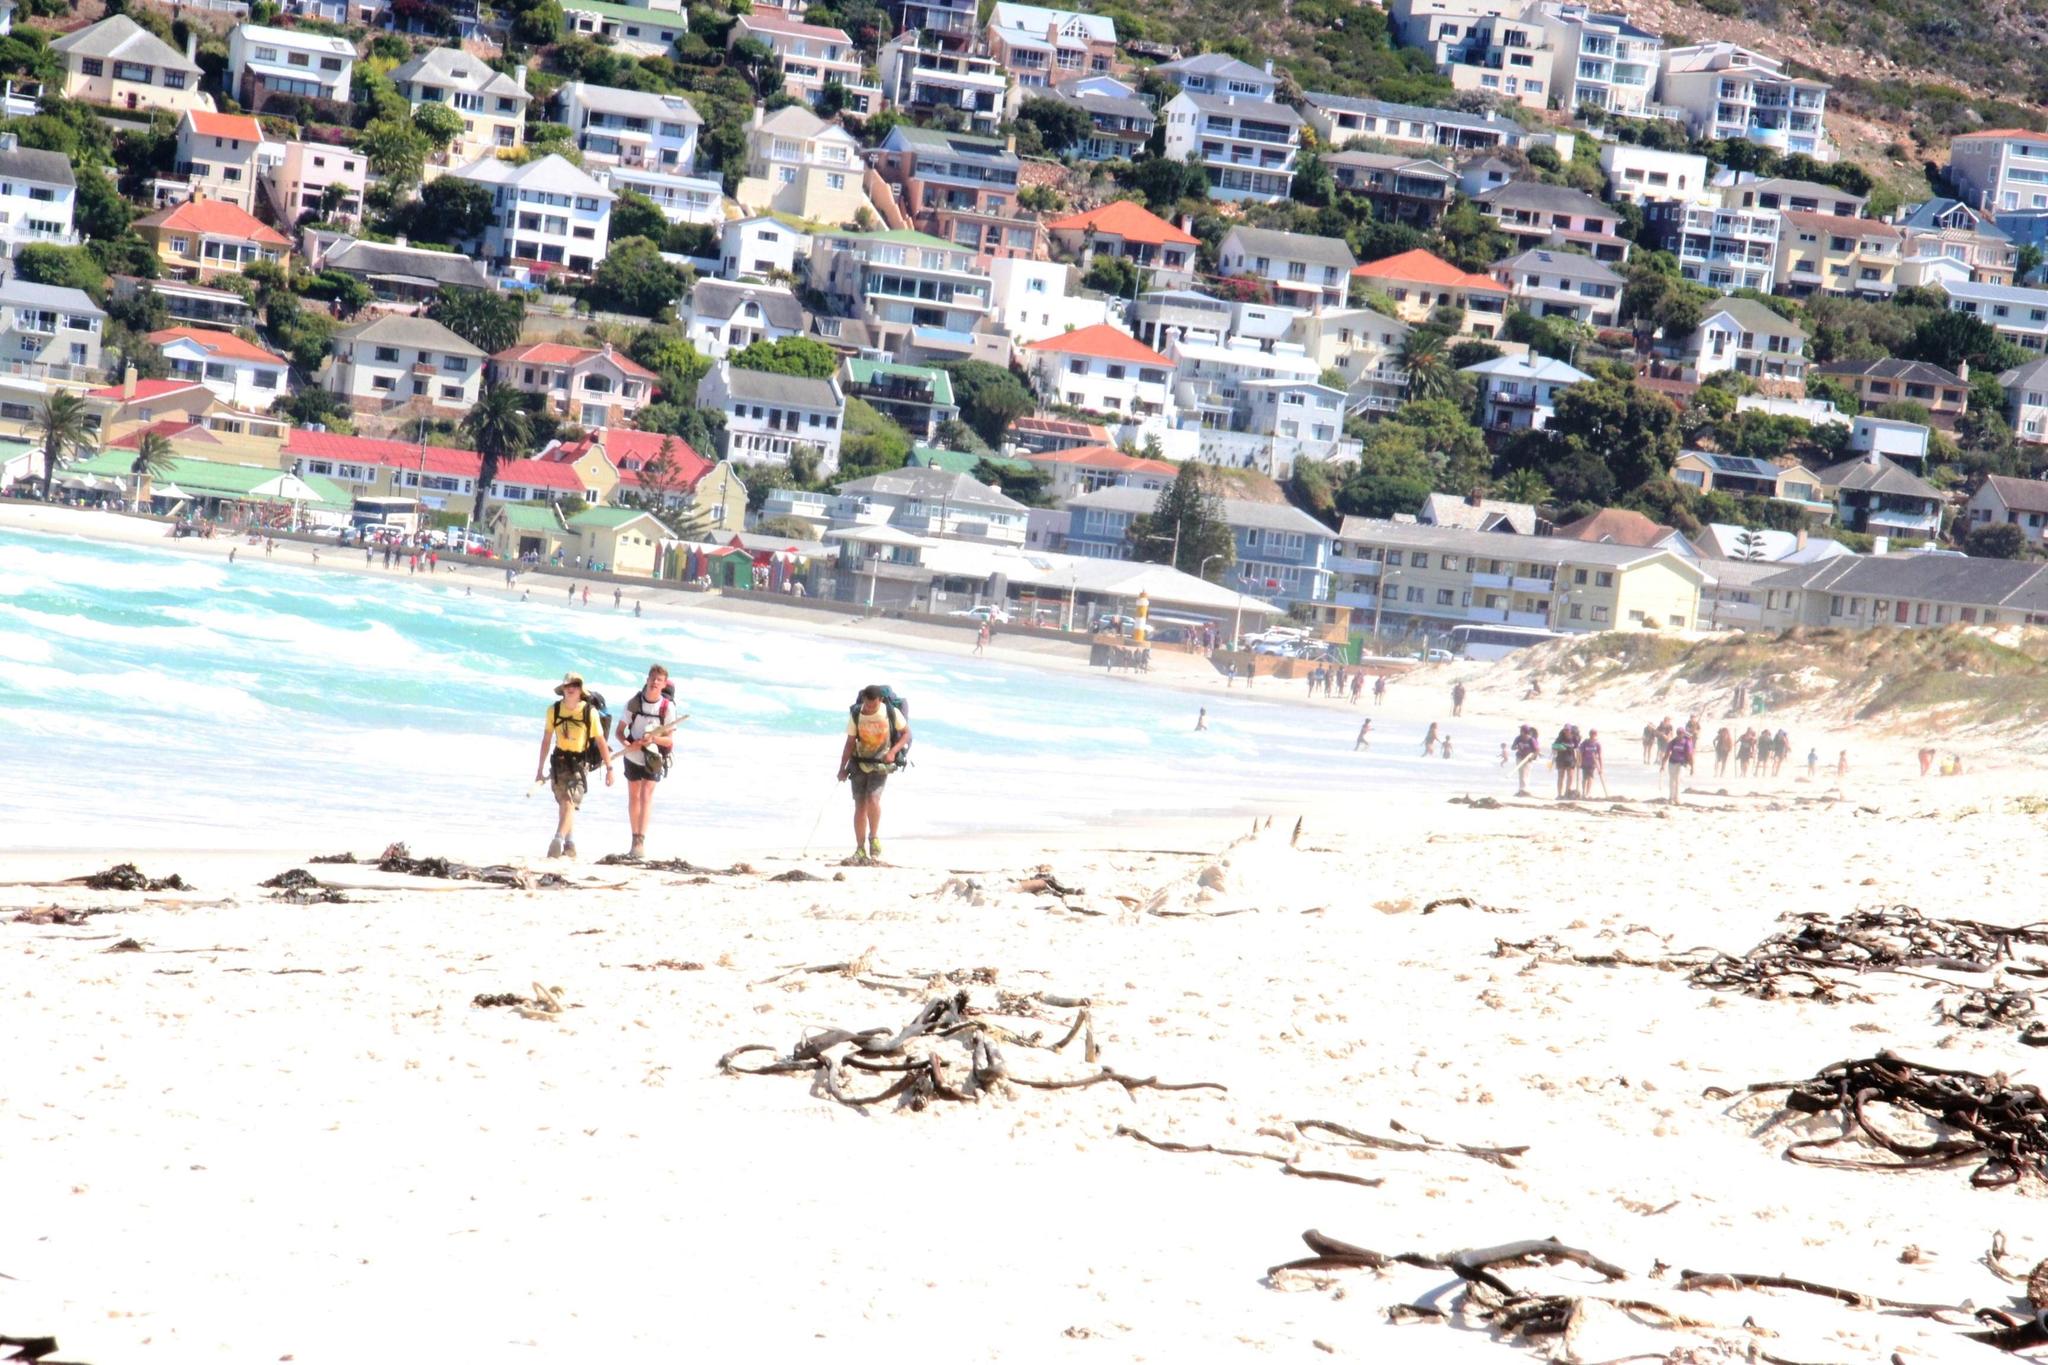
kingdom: Chromista
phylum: Ochrophyta
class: Phaeophyceae
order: Laminariales
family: Lessoniaceae
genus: Ecklonia
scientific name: Ecklonia
